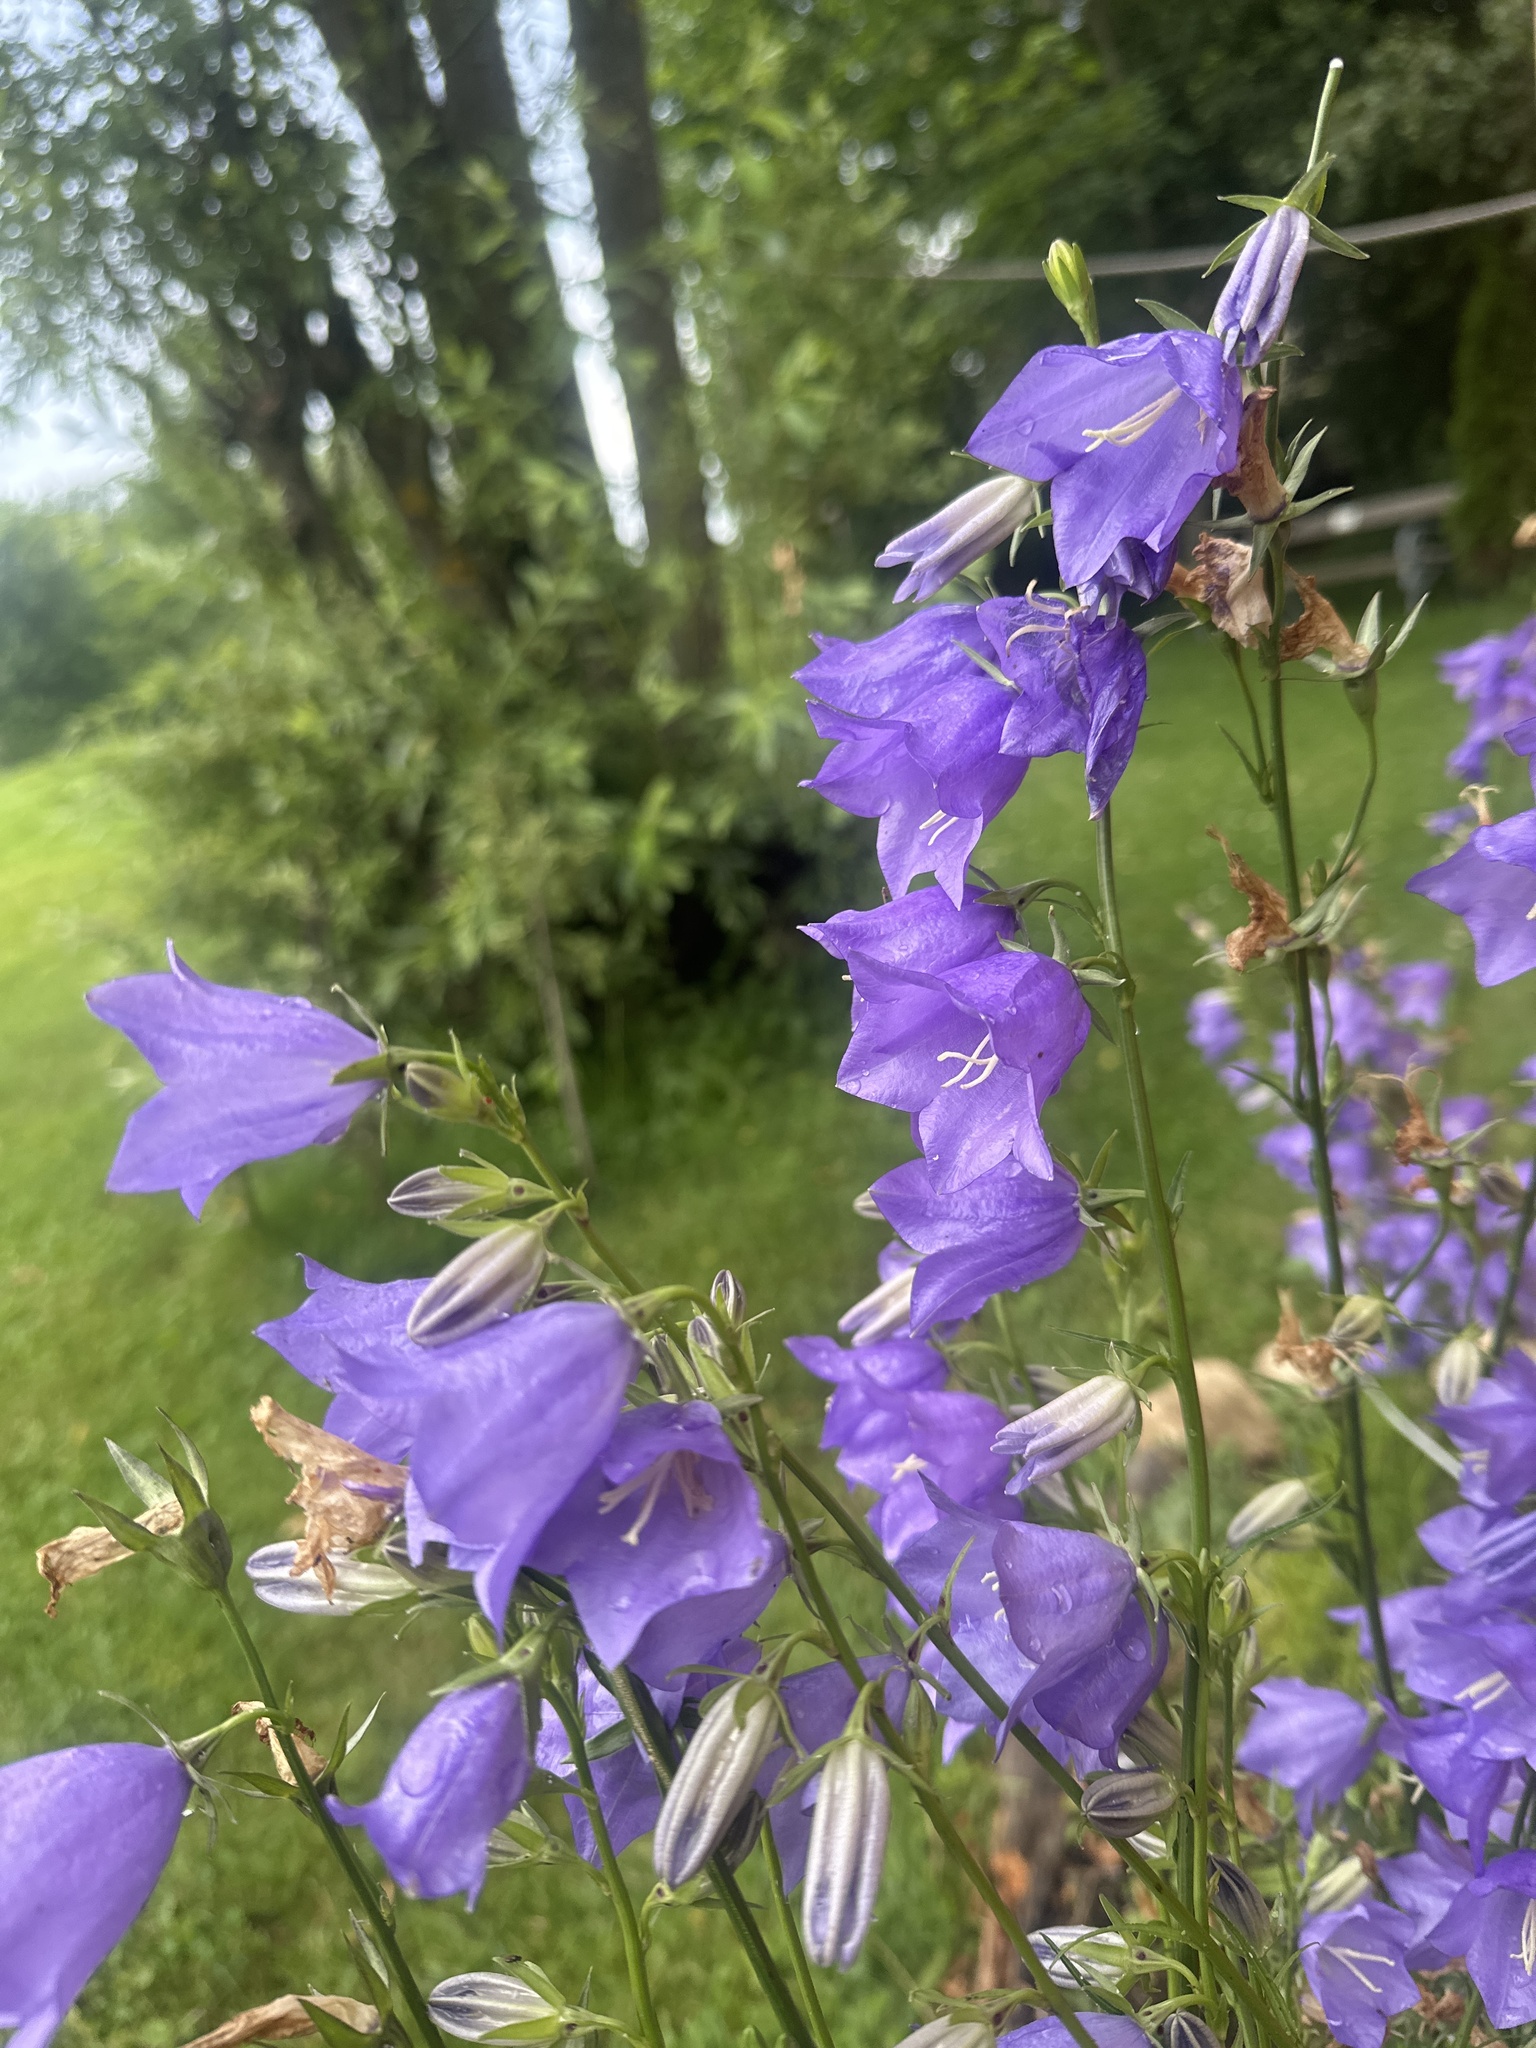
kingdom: Plantae
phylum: Tracheophyta
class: Magnoliopsida
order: Asterales
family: Campanulaceae
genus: Campanula
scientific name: Campanula persicifolia
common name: Peach-leaved bellflower
